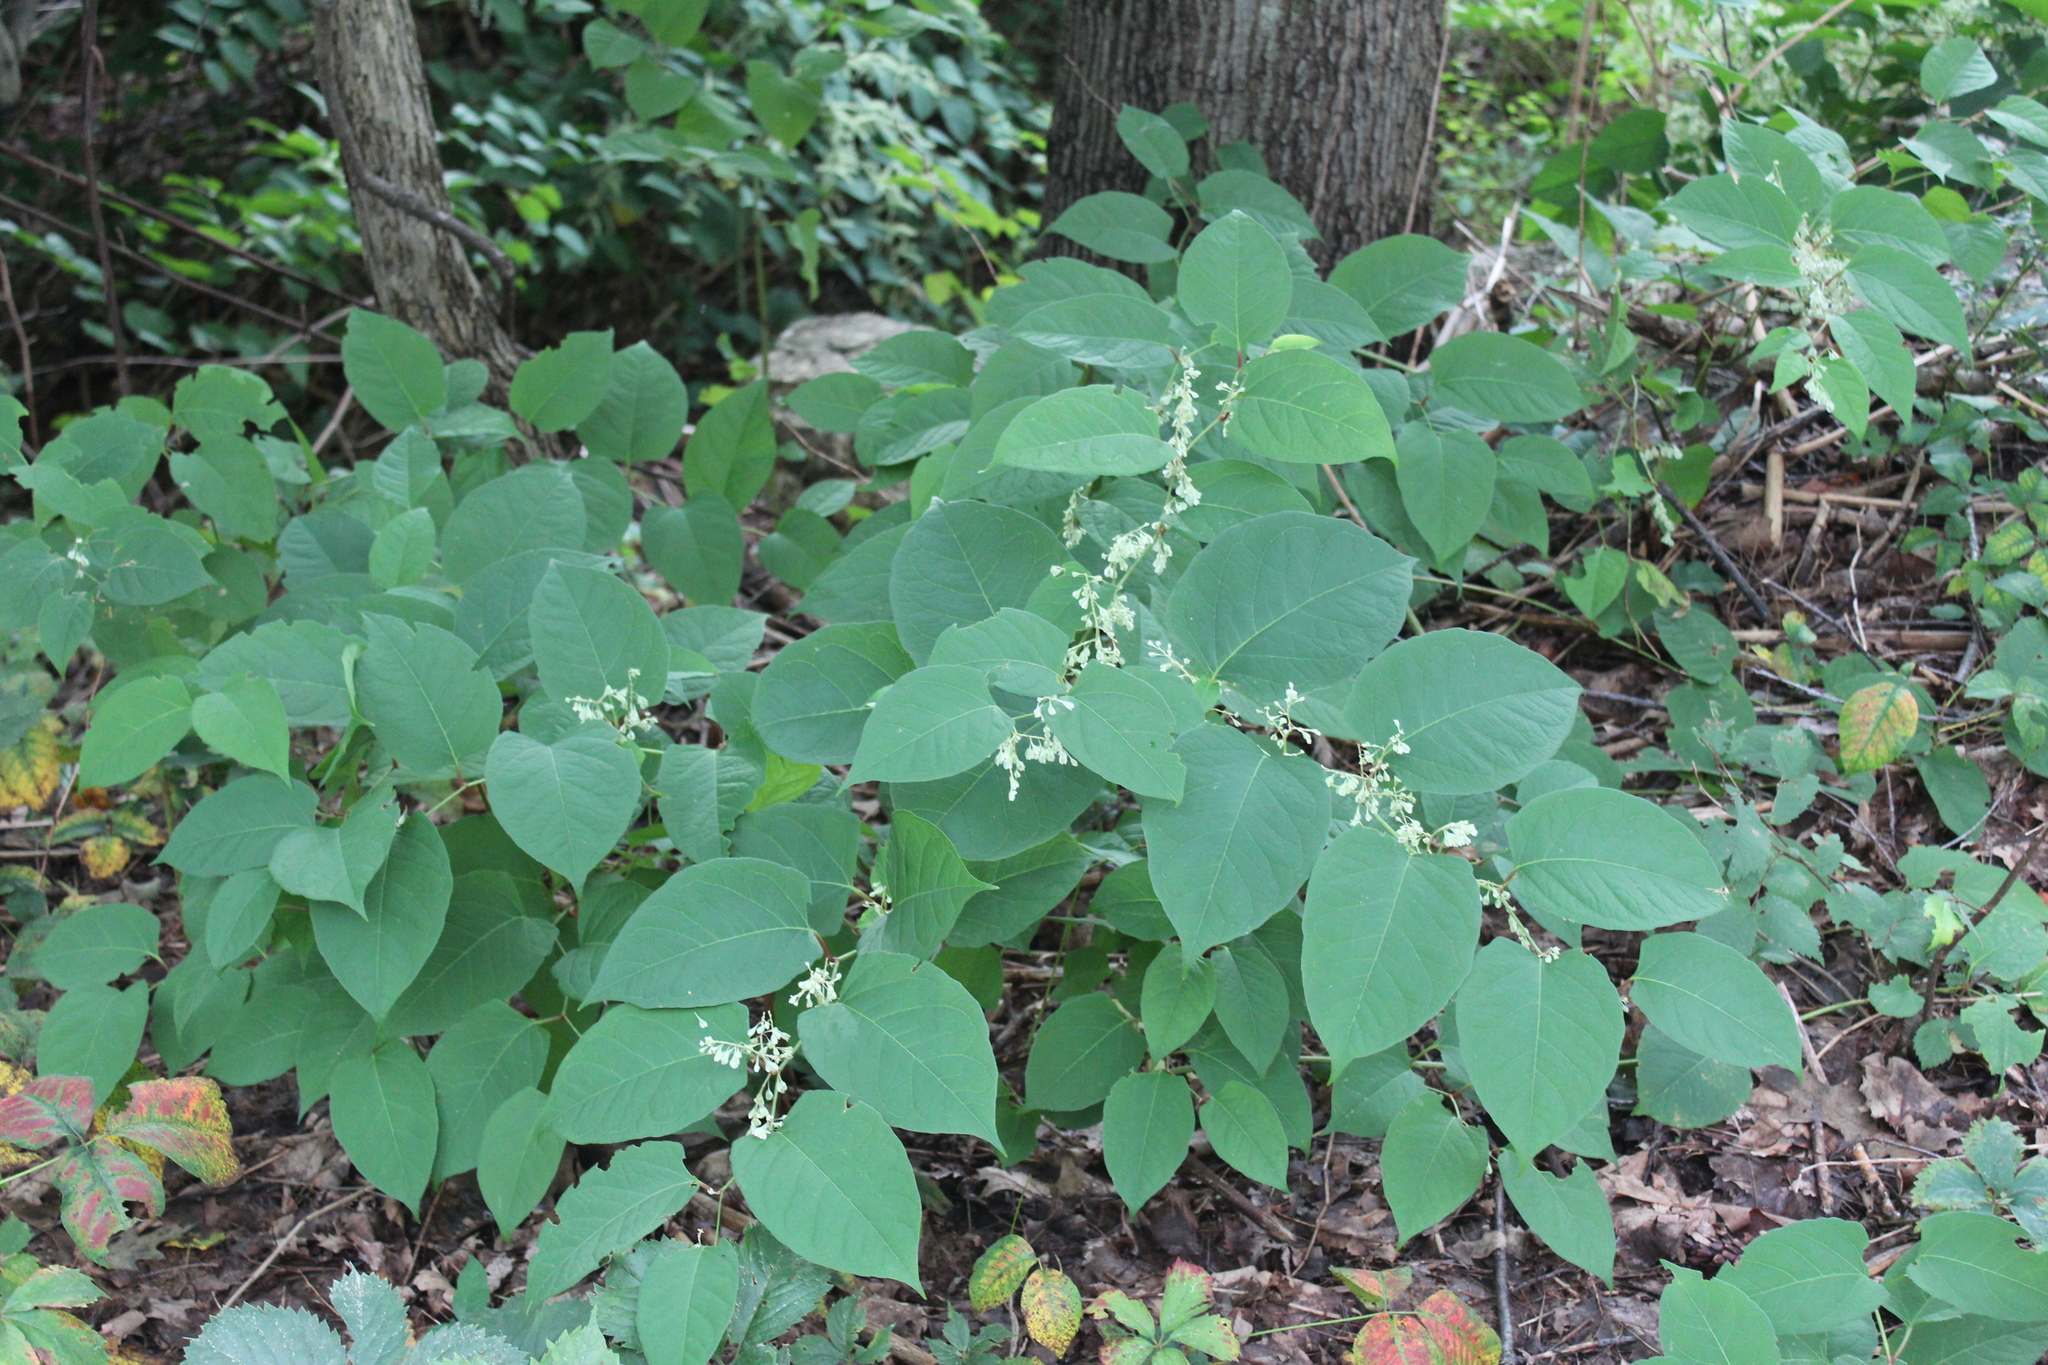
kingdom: Plantae
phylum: Tracheophyta
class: Magnoliopsida
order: Caryophyllales
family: Polygonaceae
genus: Reynoutria
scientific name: Reynoutria japonica
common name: Japanese knotweed
